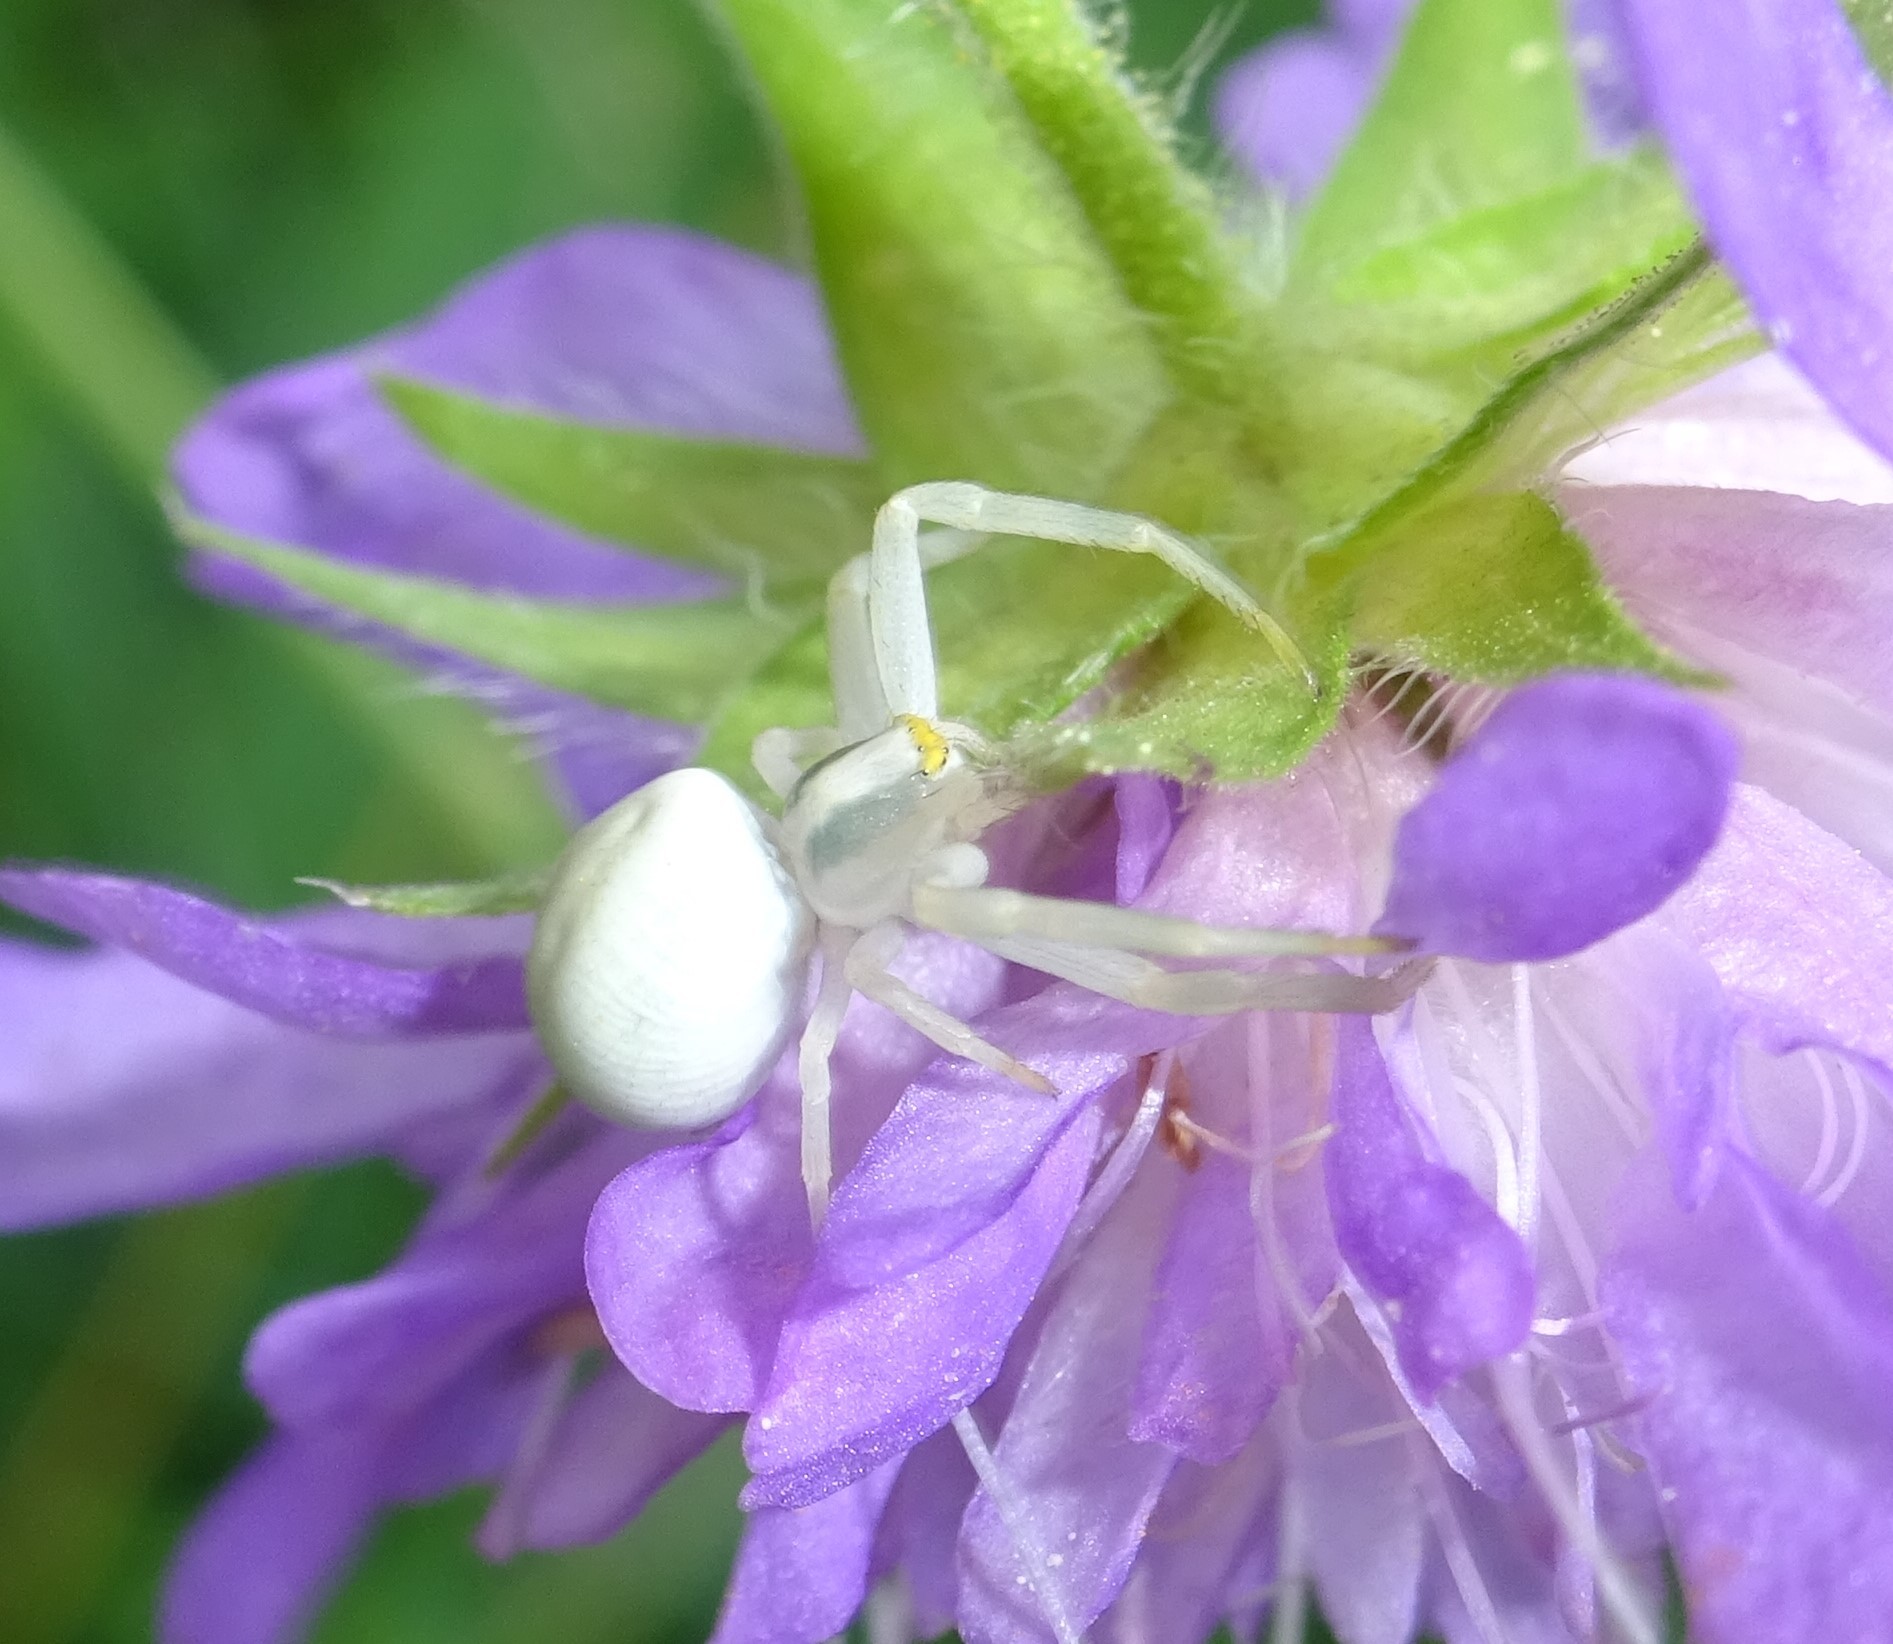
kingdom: Animalia
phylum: Arthropoda
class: Arachnida
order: Araneae
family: Thomisidae
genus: Misumena
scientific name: Misumena vatia
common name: Goldenrod crab spider
